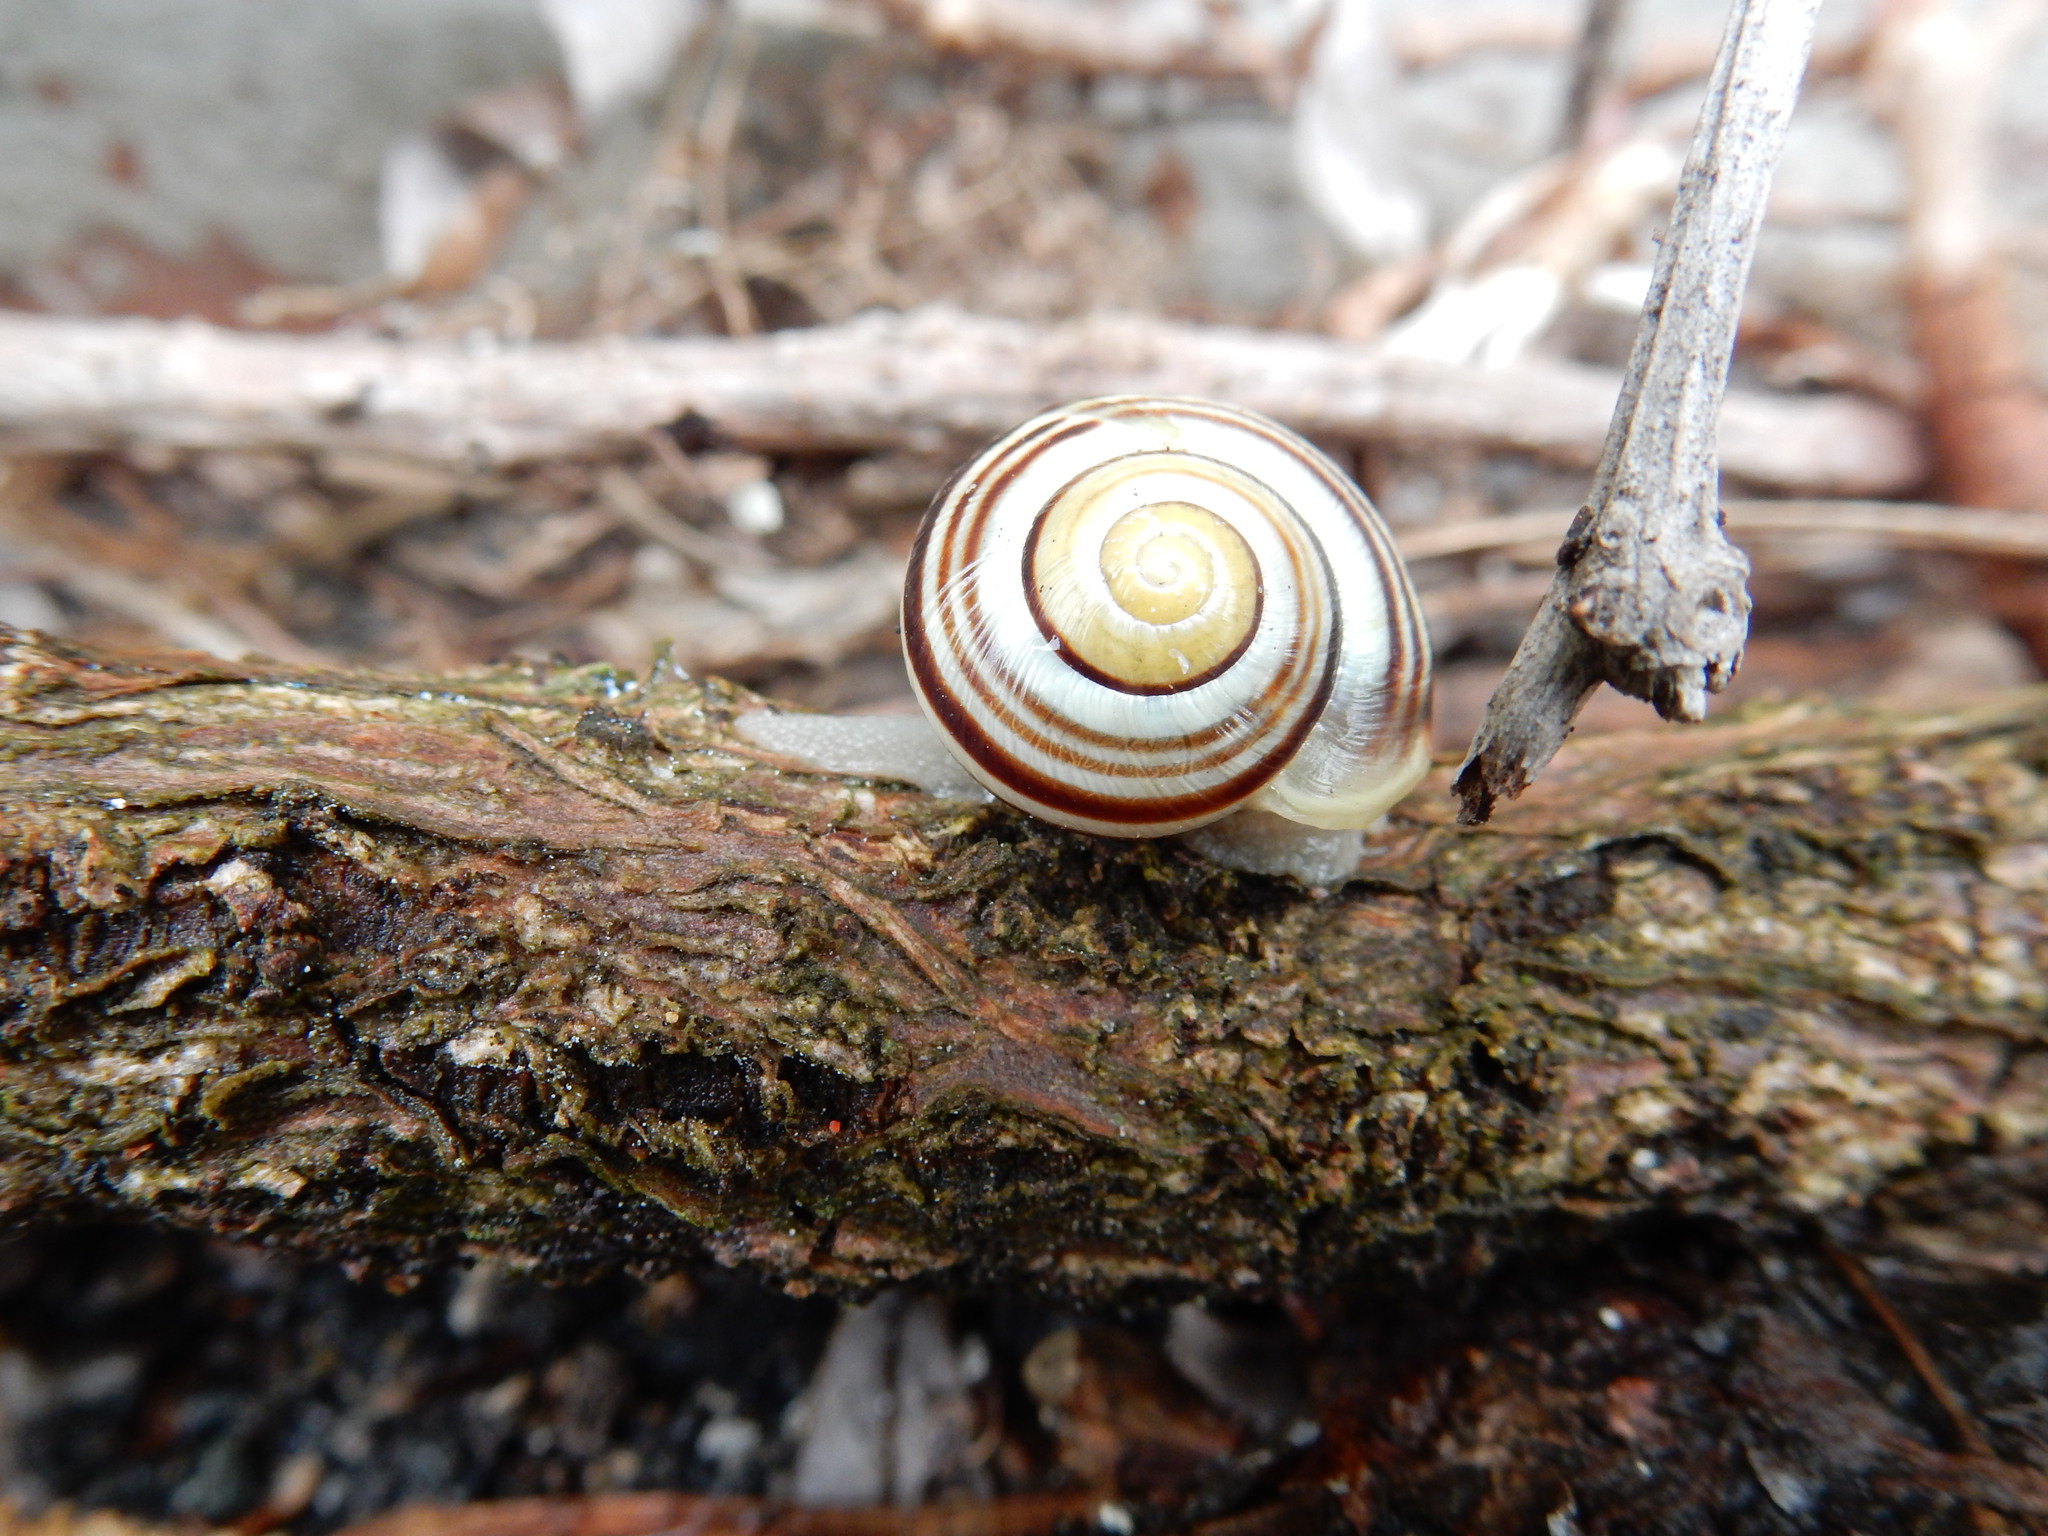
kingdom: Animalia
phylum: Mollusca
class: Gastropoda
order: Stylommatophora
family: Helicidae
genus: Cepaea
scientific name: Cepaea hortensis
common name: White-lip gardensnail
